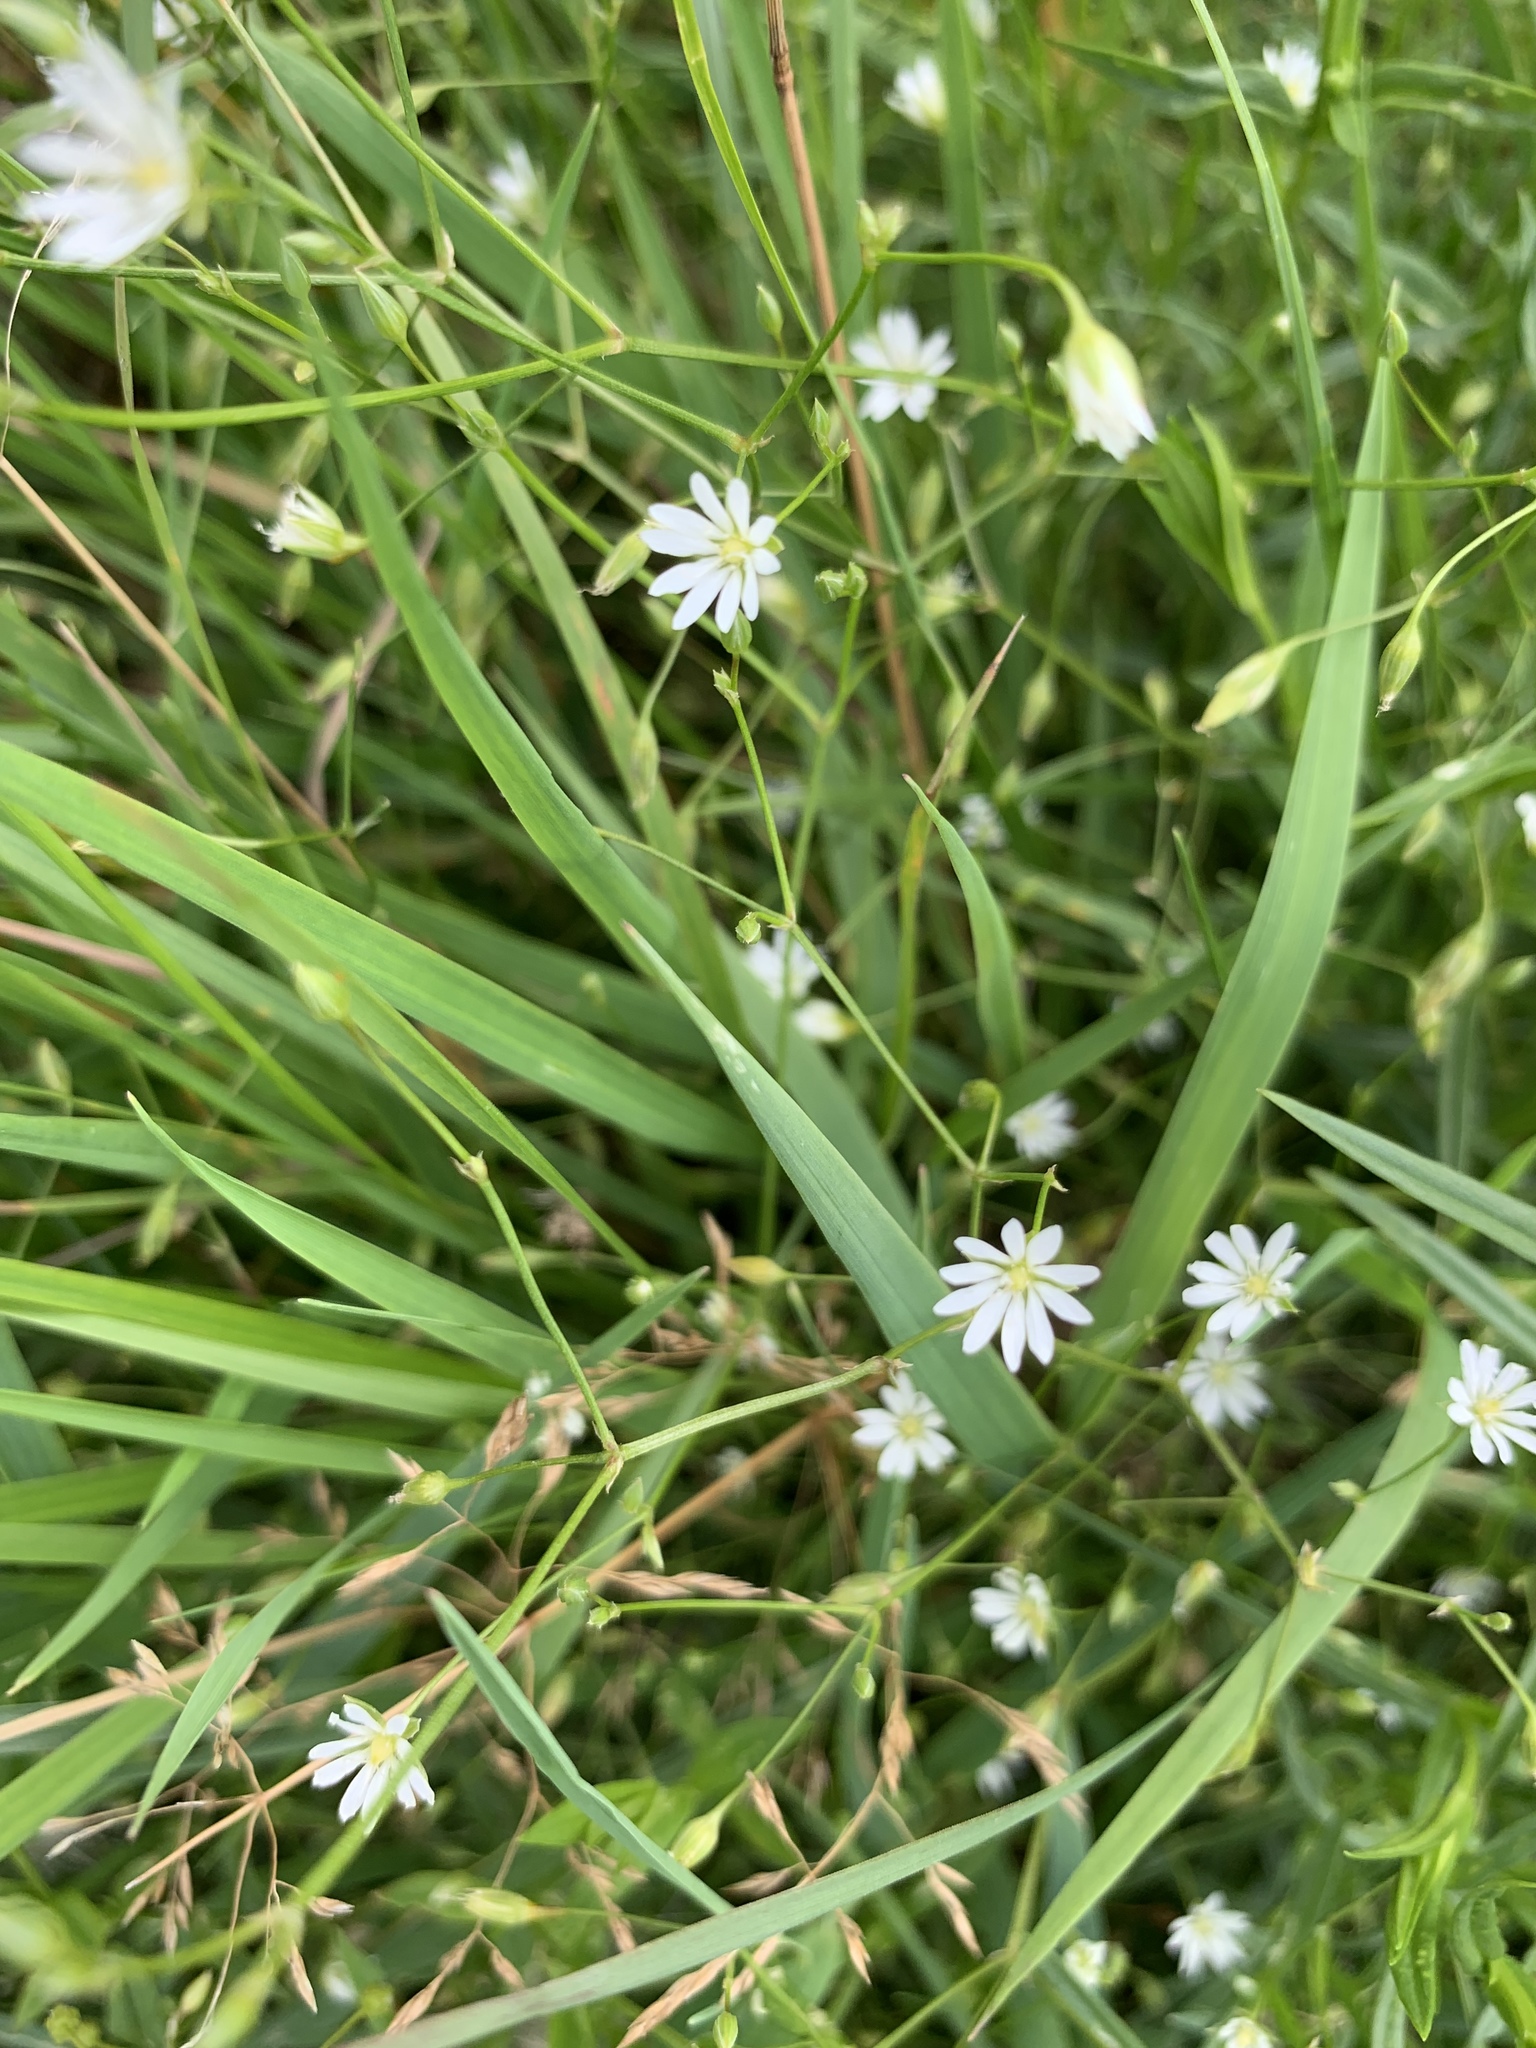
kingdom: Plantae
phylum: Tracheophyta
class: Magnoliopsida
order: Caryophyllales
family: Caryophyllaceae
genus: Stellaria
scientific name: Stellaria graminea
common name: Grass-like starwort
